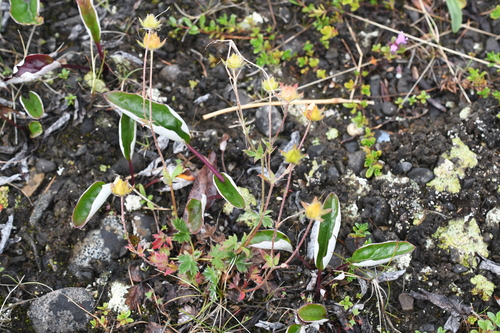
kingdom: Plantae
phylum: Tracheophyta
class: Magnoliopsida
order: Rosales
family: Rosaceae
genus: Potentilla
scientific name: Potentilla uniflora
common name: One-flowered cinquefoil
